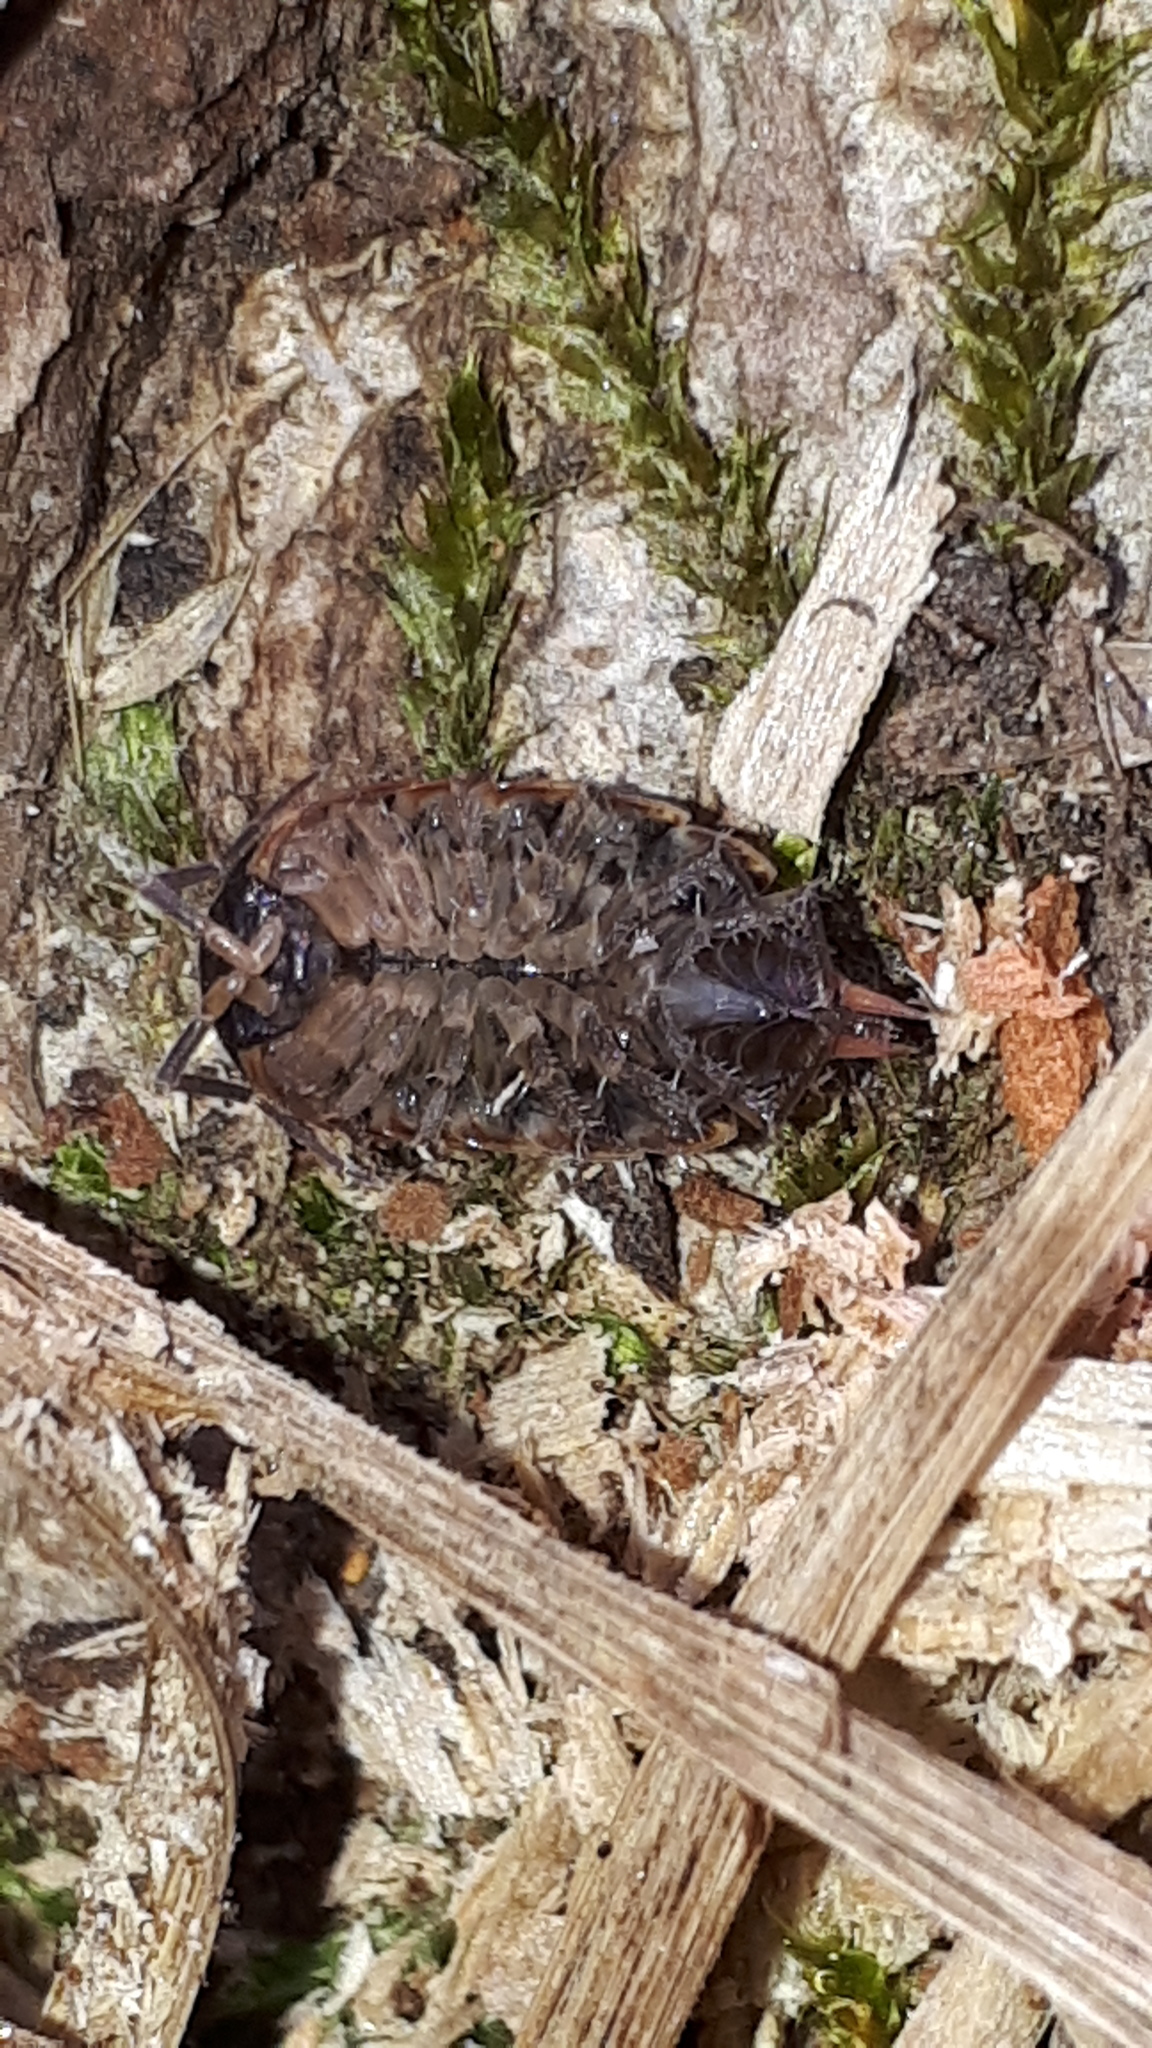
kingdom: Animalia
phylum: Arthropoda
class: Malacostraca
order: Isopoda
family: Philosciidae
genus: Philoscia
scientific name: Philoscia muscorum
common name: Common striped woodlouse
